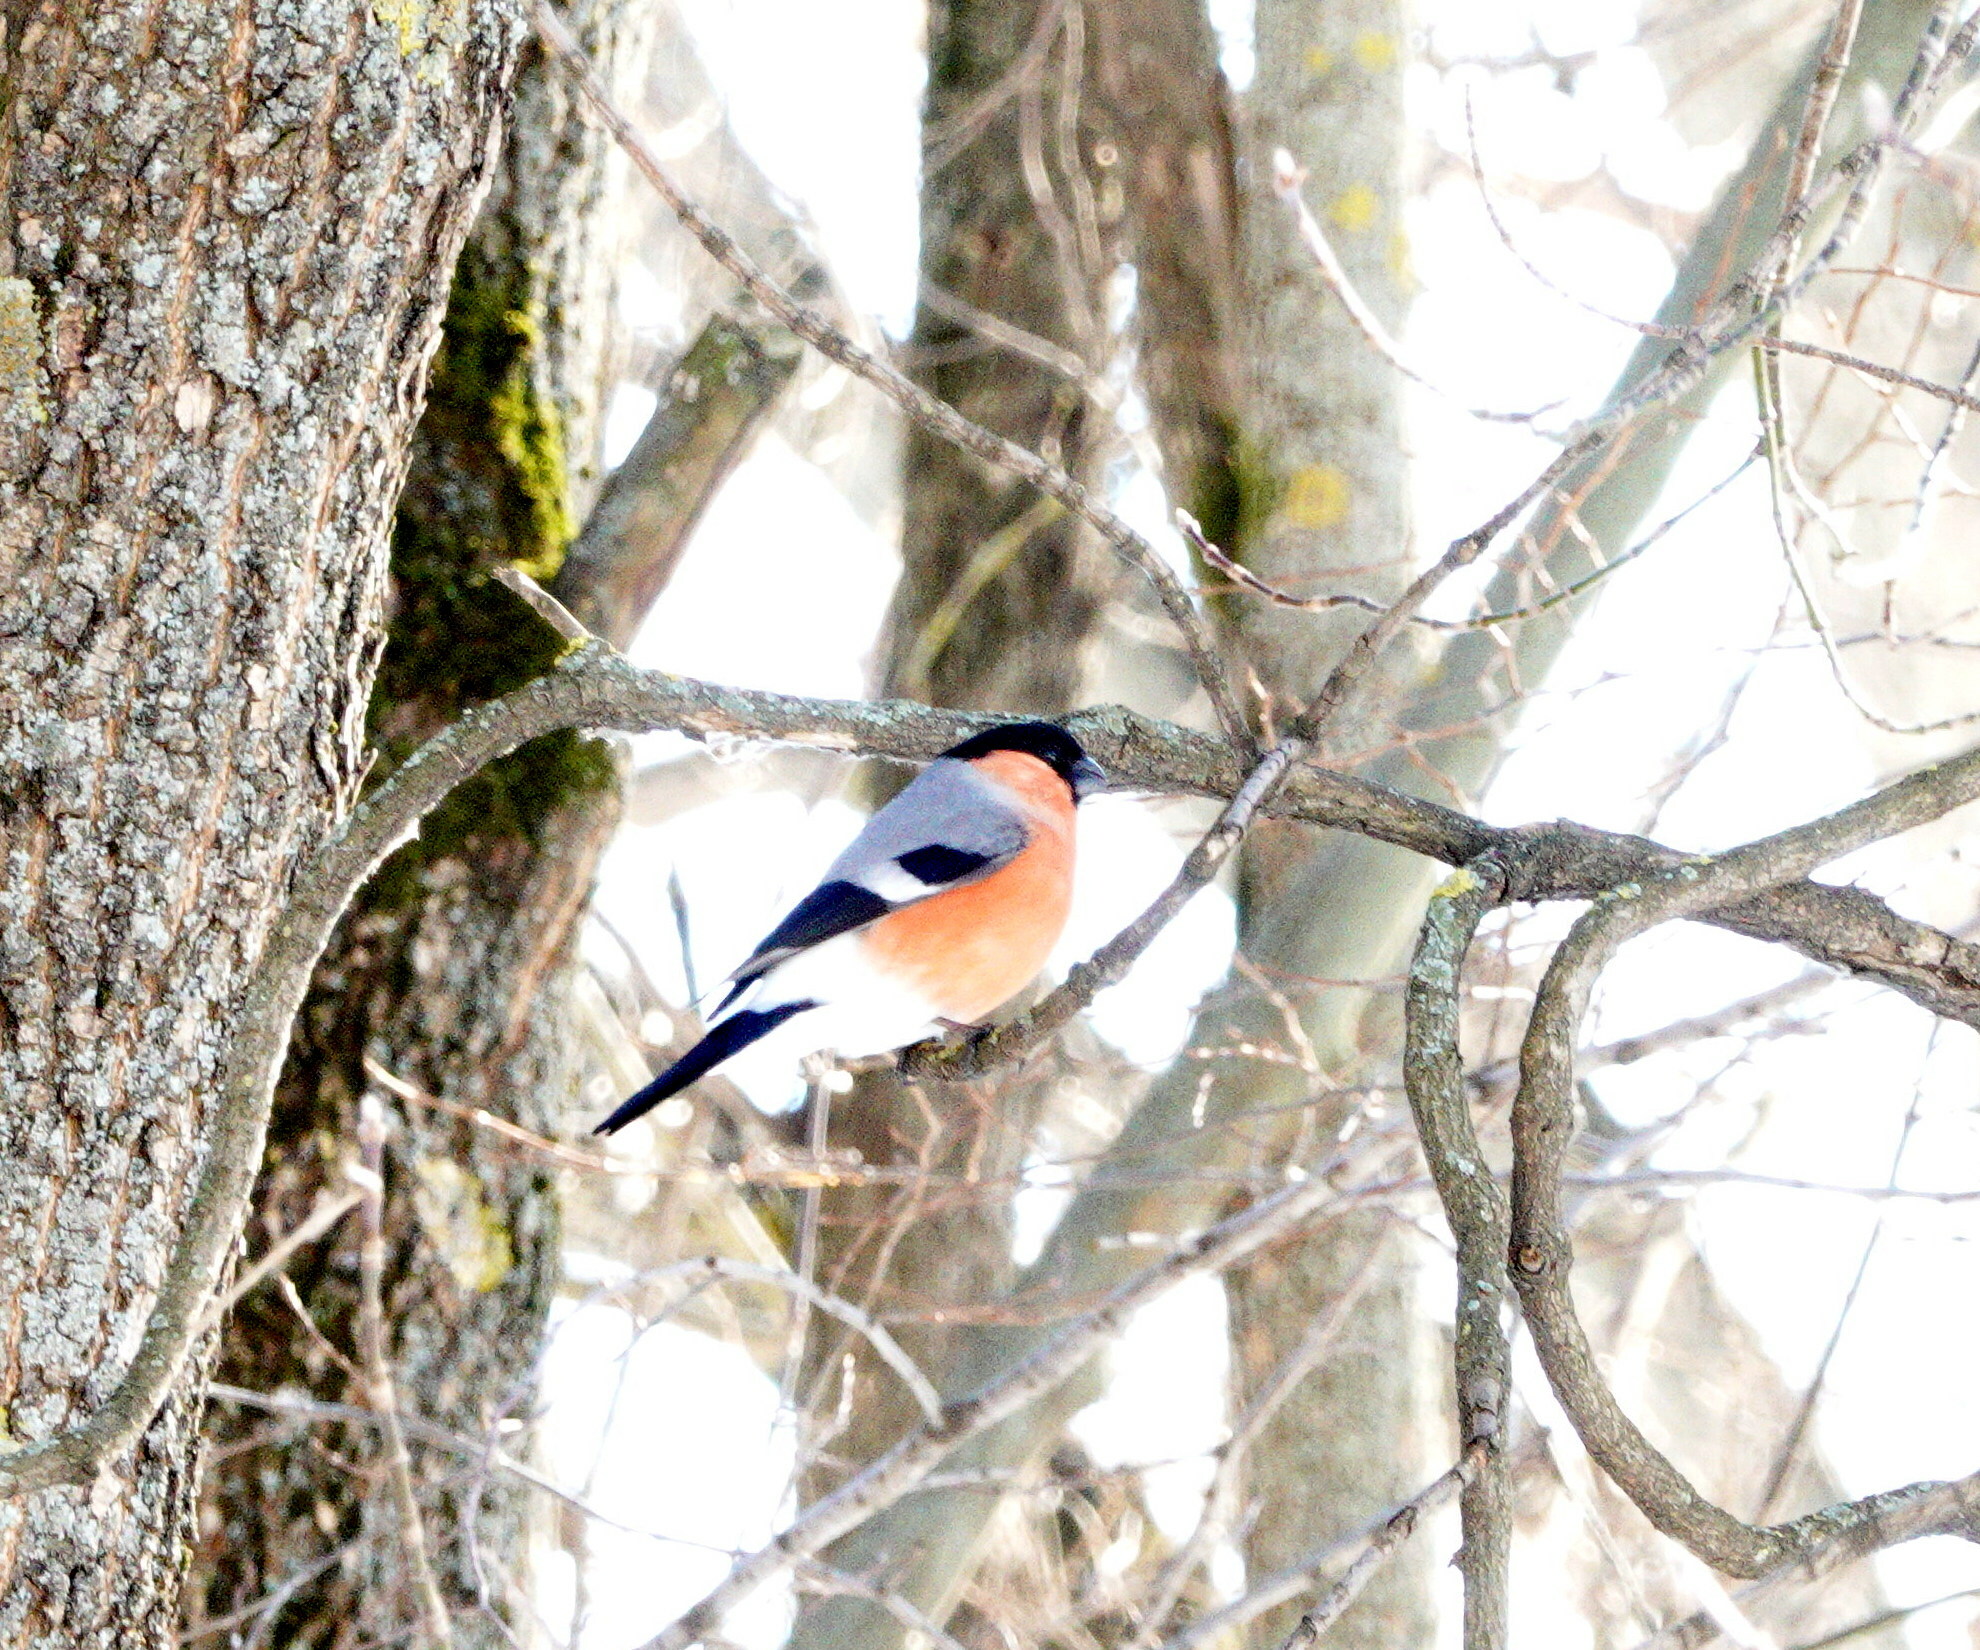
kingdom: Animalia
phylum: Chordata
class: Aves
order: Passeriformes
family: Fringillidae
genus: Pyrrhula
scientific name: Pyrrhula pyrrhula
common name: Eurasian bullfinch
